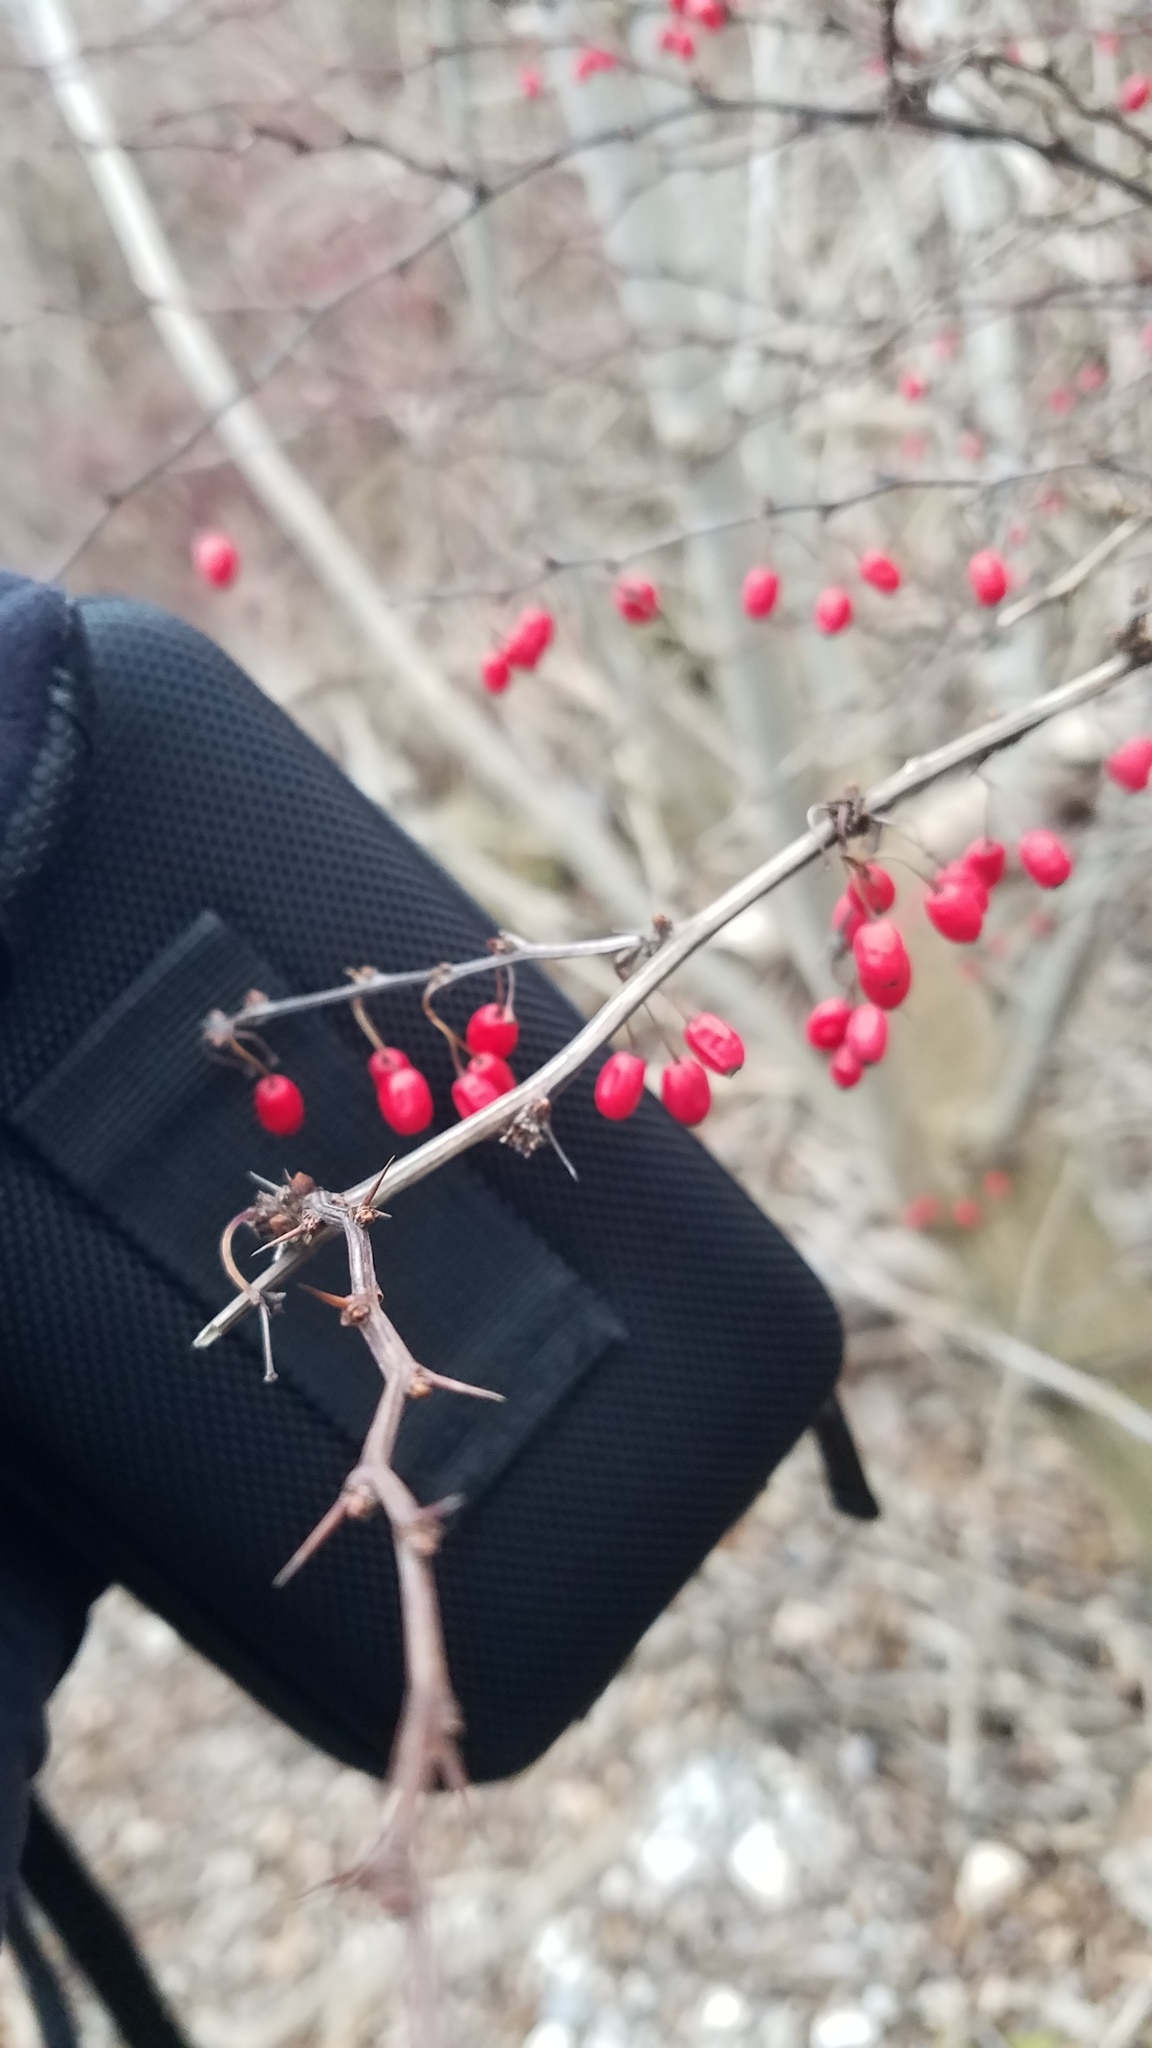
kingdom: Plantae
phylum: Tracheophyta
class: Magnoliopsida
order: Ranunculales
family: Berberidaceae
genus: Berberis
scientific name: Berberis thunbergii
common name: Japanese barberry
